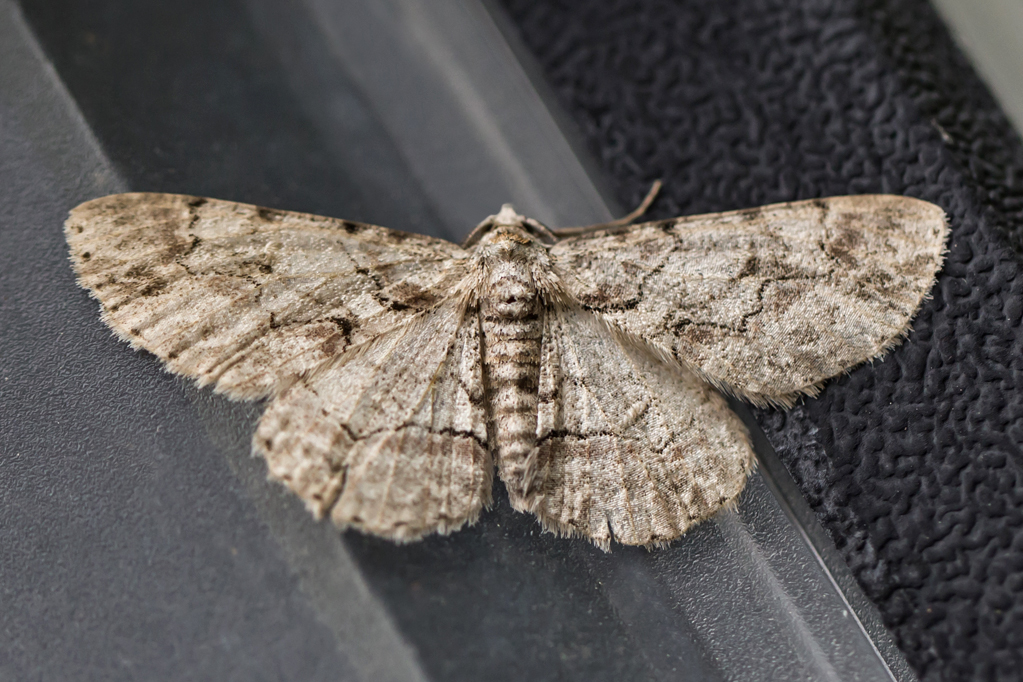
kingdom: Animalia
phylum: Arthropoda
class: Insecta
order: Lepidoptera
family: Geometridae
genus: Iridopsis
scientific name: Iridopsis defectaria
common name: Brown-shaded gray
